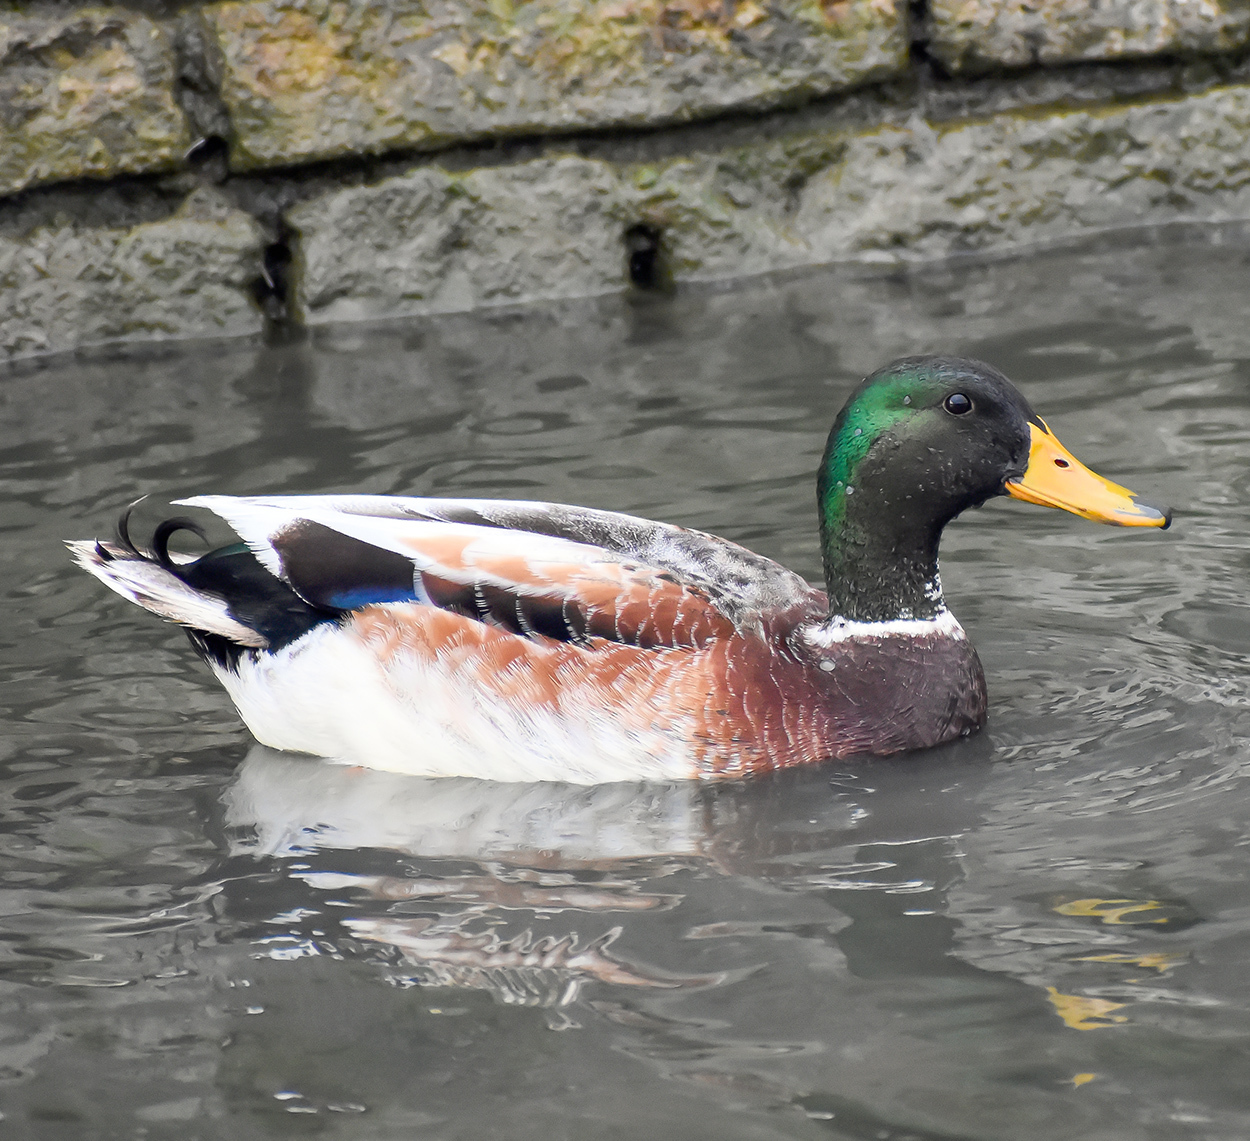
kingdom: Animalia
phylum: Chordata
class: Aves
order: Anseriformes
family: Anatidae
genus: Anas
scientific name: Anas platyrhynchos
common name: Mallard
